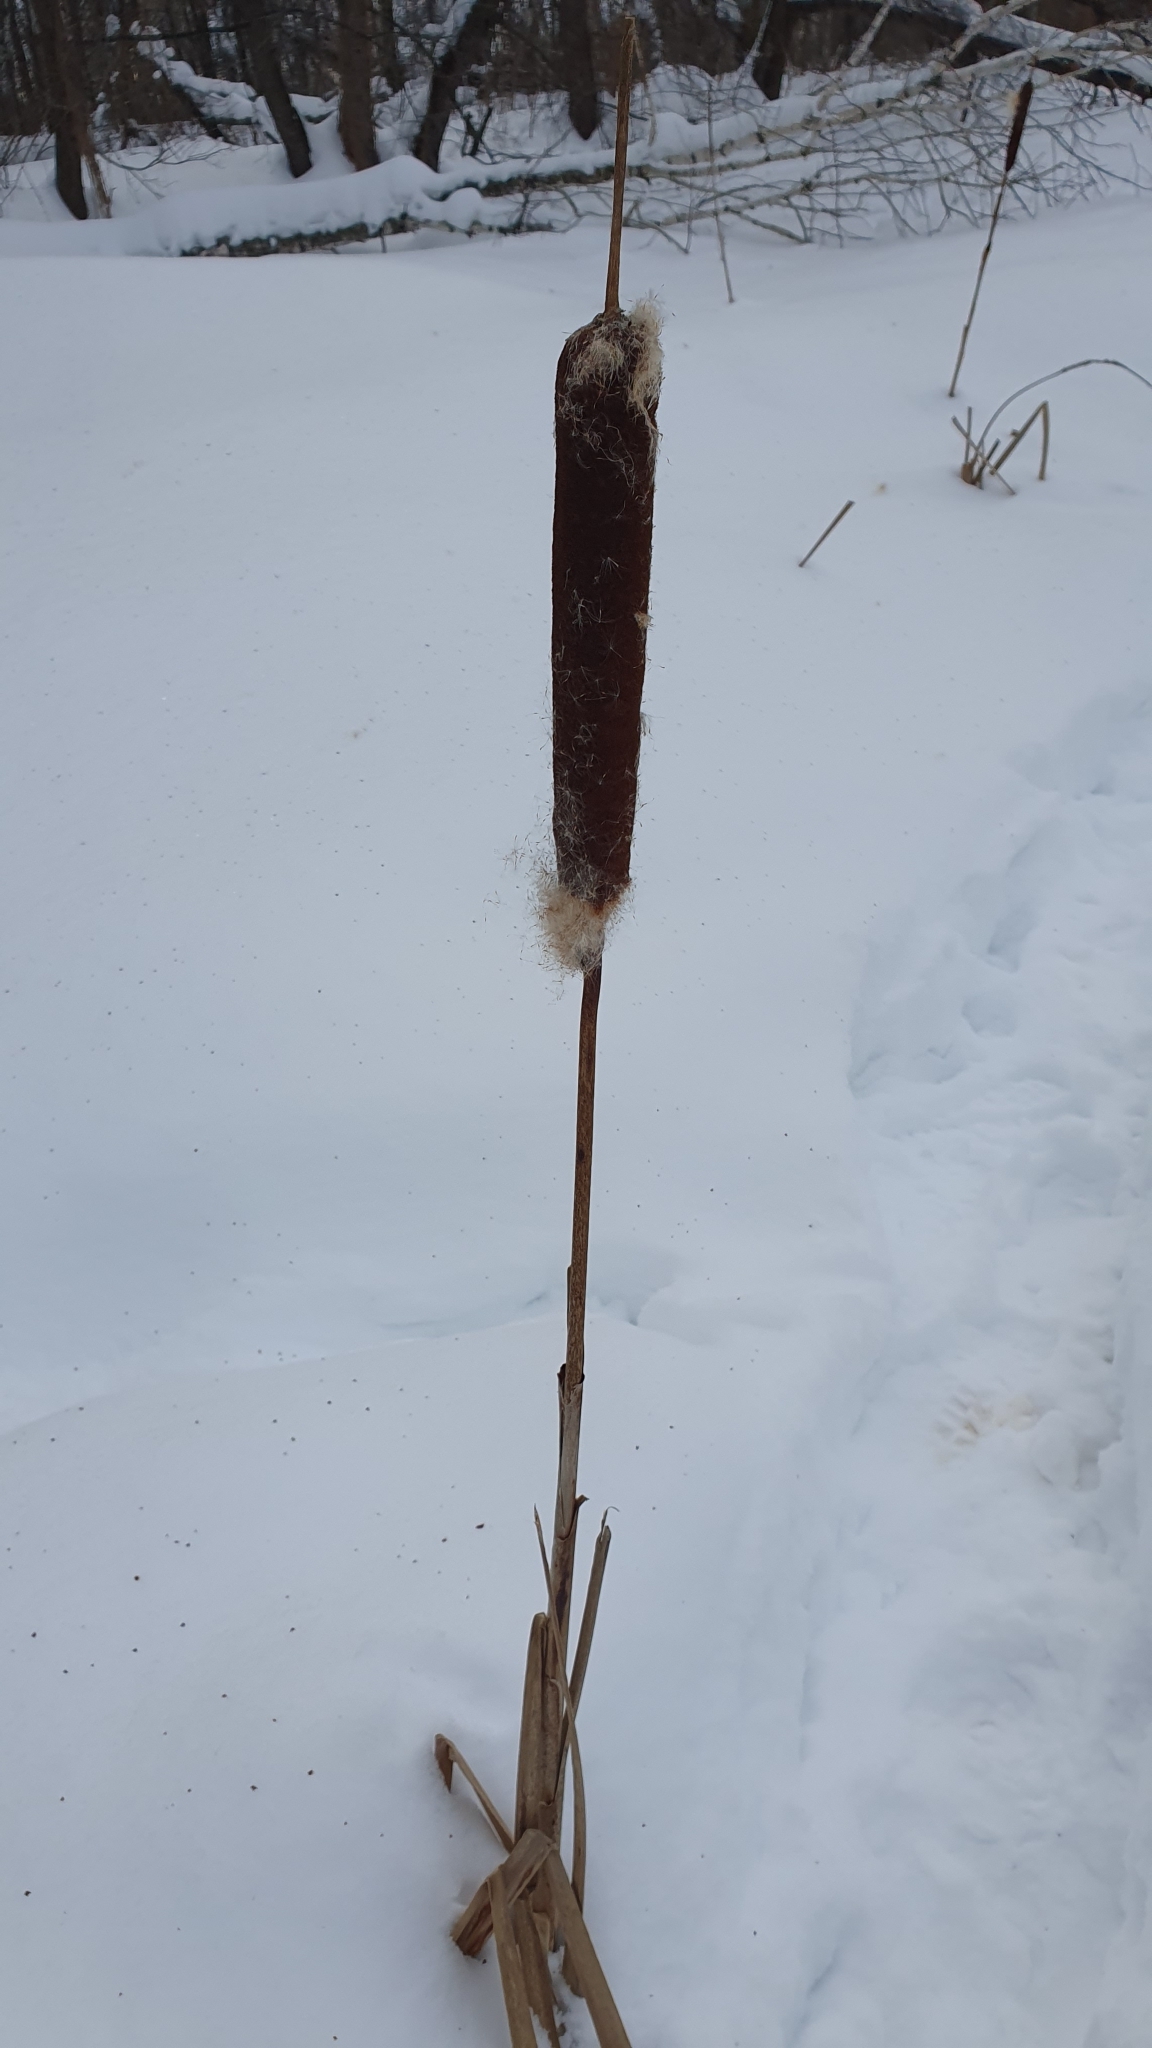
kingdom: Plantae
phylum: Tracheophyta
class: Liliopsida
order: Poales
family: Typhaceae
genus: Typha
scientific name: Typha latifolia
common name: Broadleaf cattail
